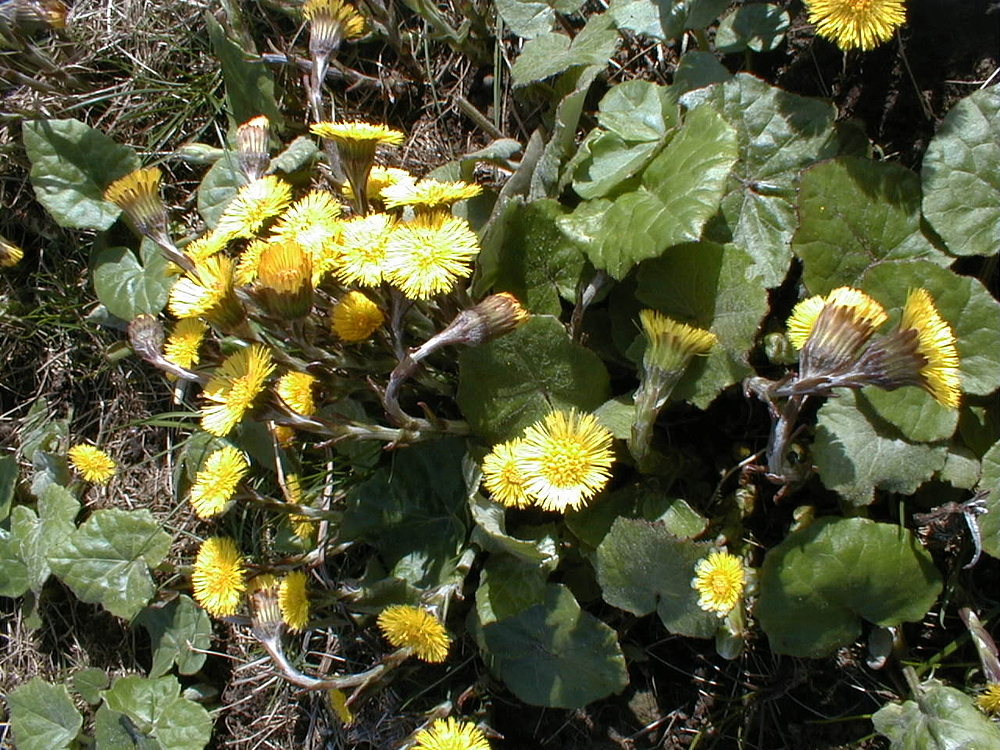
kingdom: Plantae
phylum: Tracheophyta
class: Magnoliopsida
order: Asterales
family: Asteraceae
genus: Tussilago
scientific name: Tussilago farfara
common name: Coltsfoot
